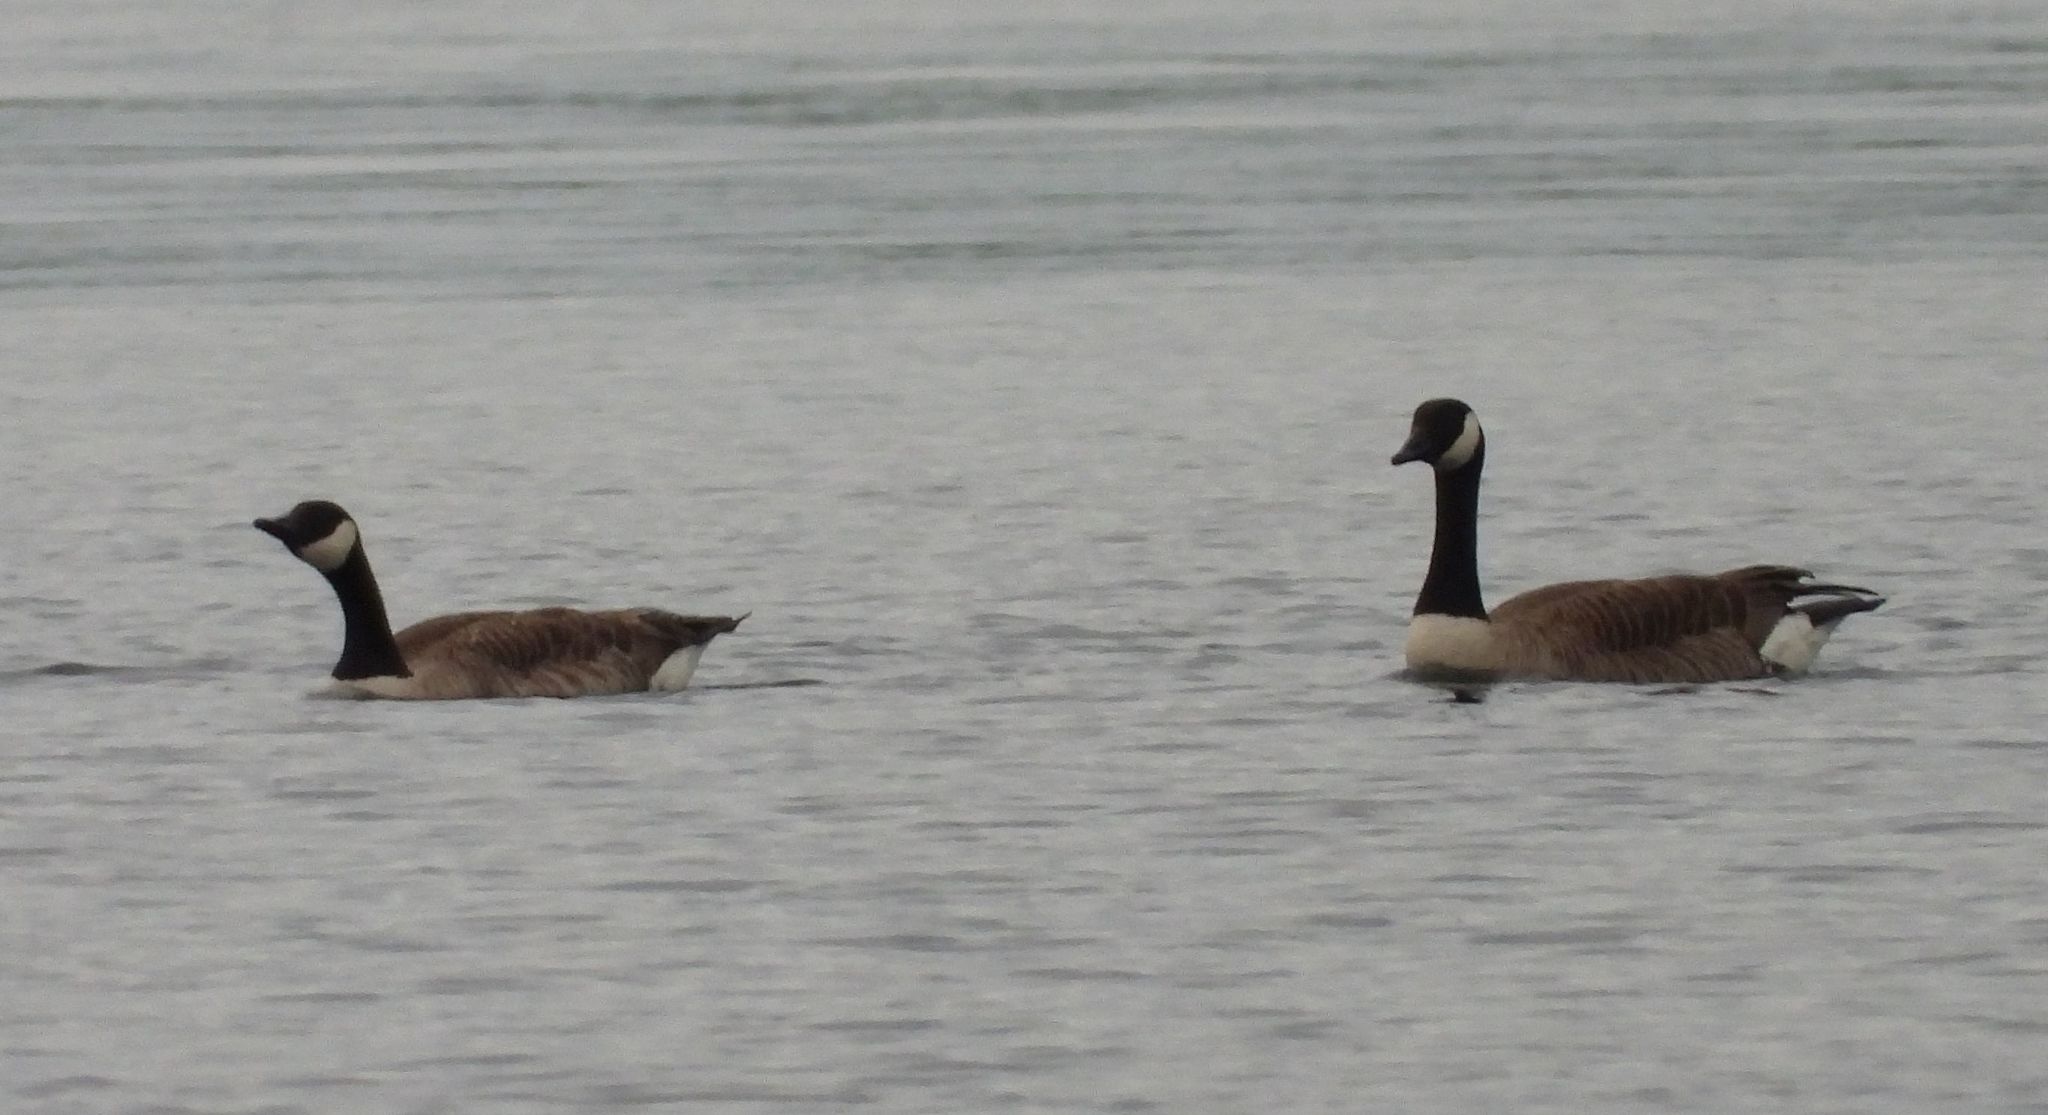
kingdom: Animalia
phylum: Chordata
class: Aves
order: Anseriformes
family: Anatidae
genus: Branta
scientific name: Branta canadensis
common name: Canada goose
